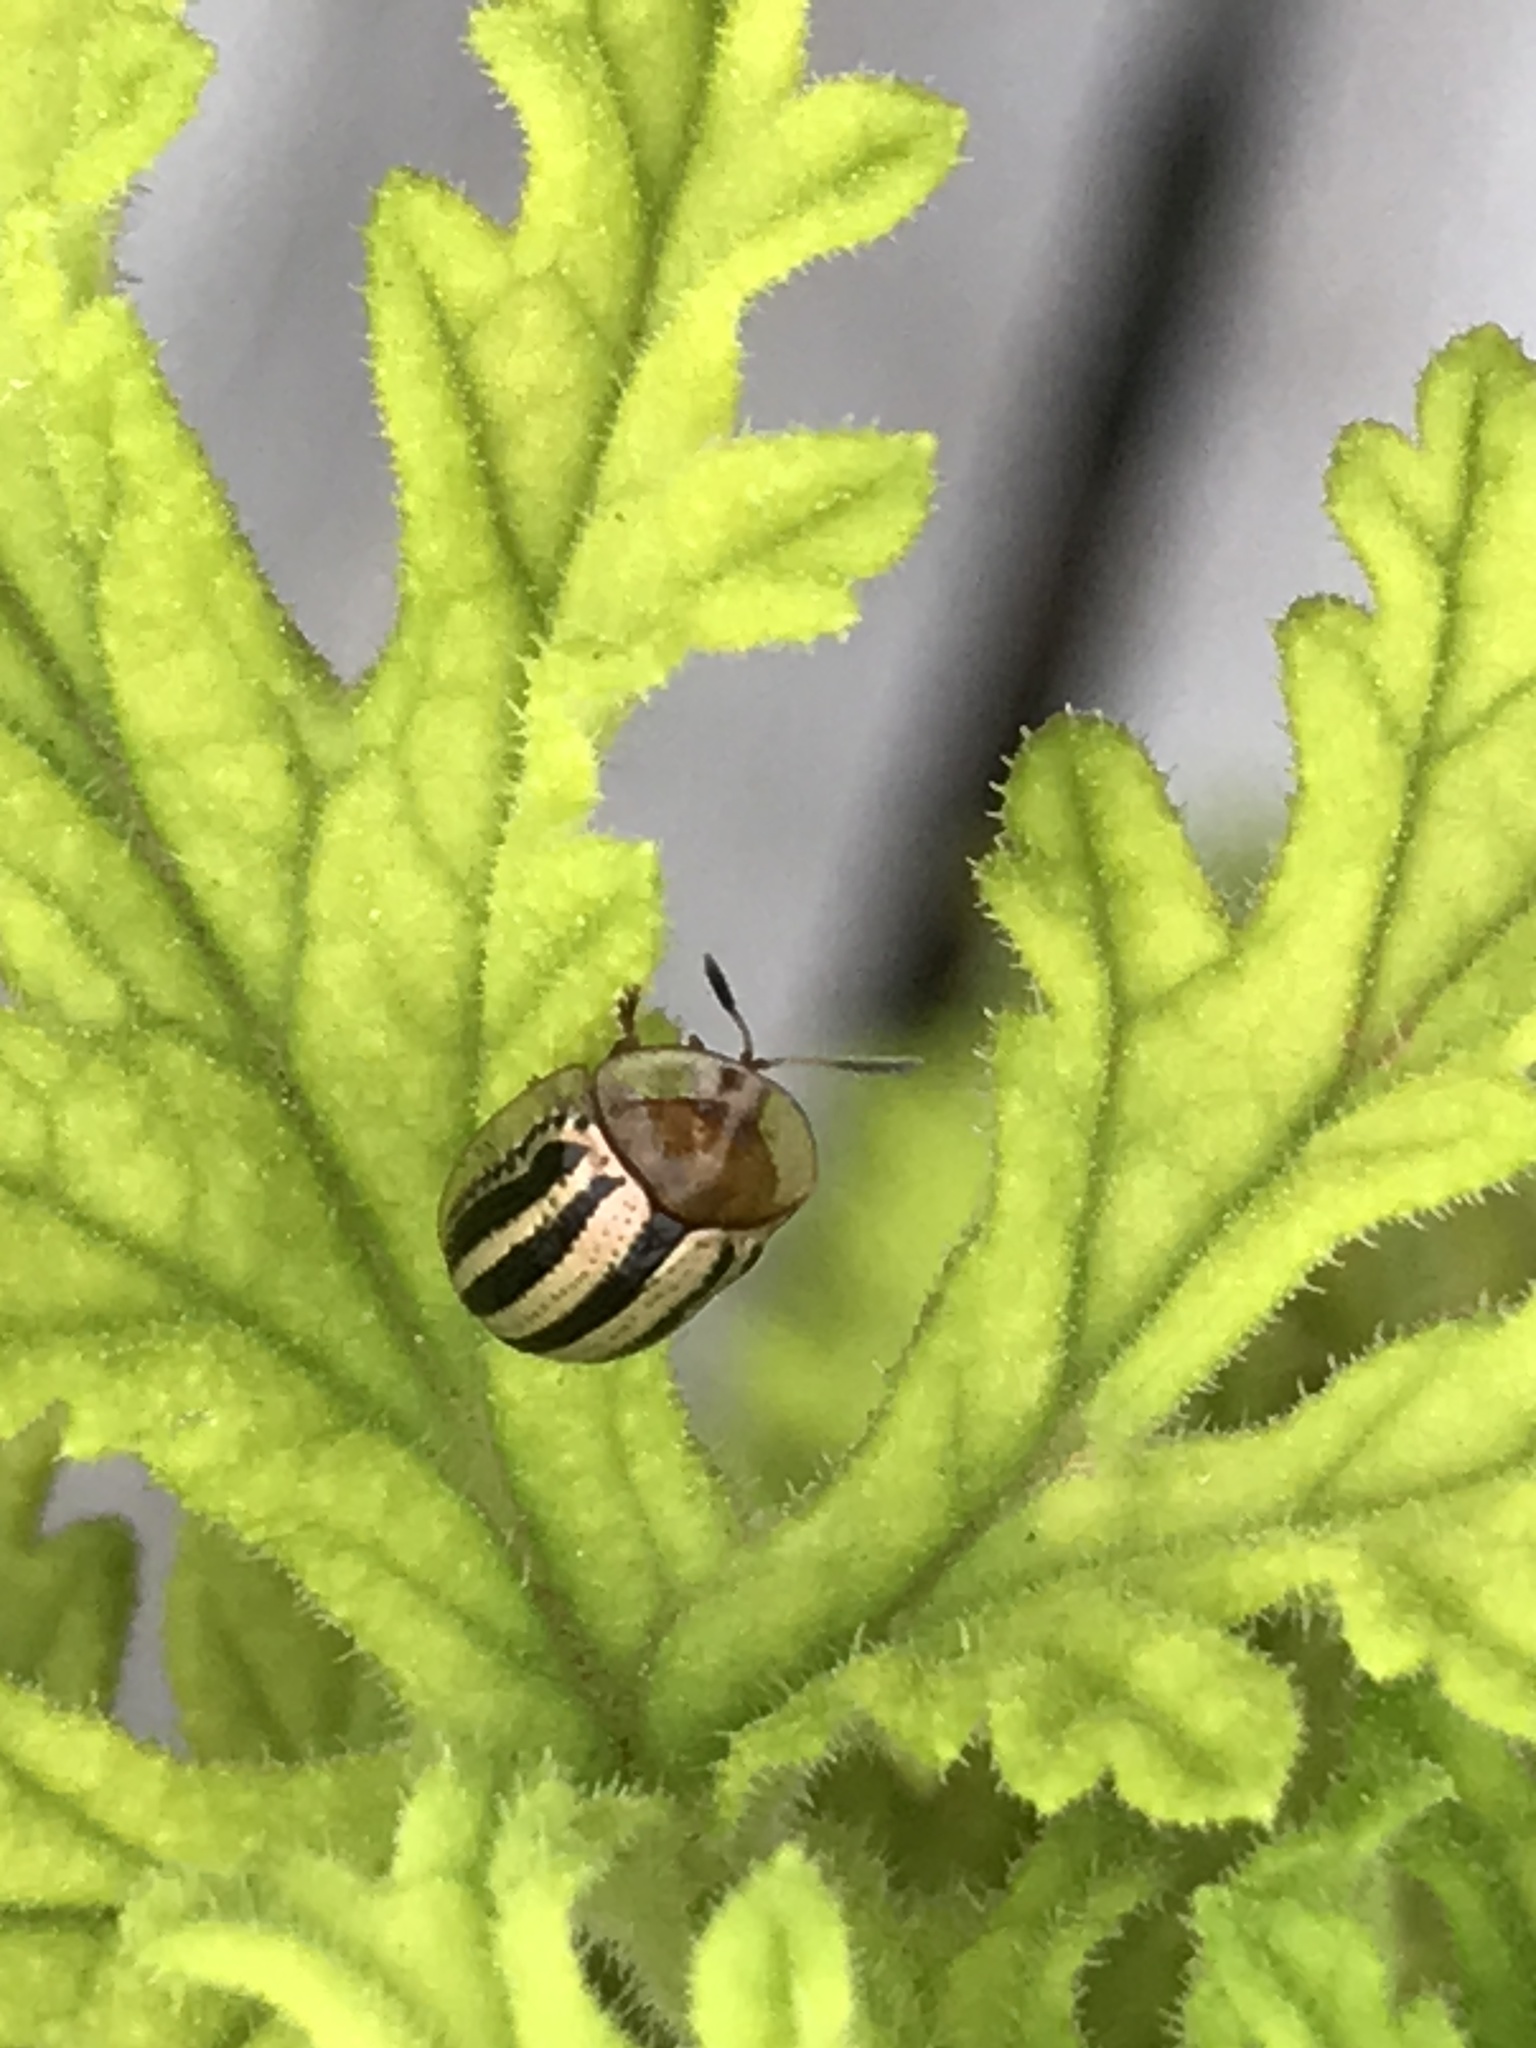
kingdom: Animalia
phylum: Arthropoda
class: Insecta
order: Coleoptera
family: Chrysomelidae
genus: Agroiconota
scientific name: Agroiconota bivittata
